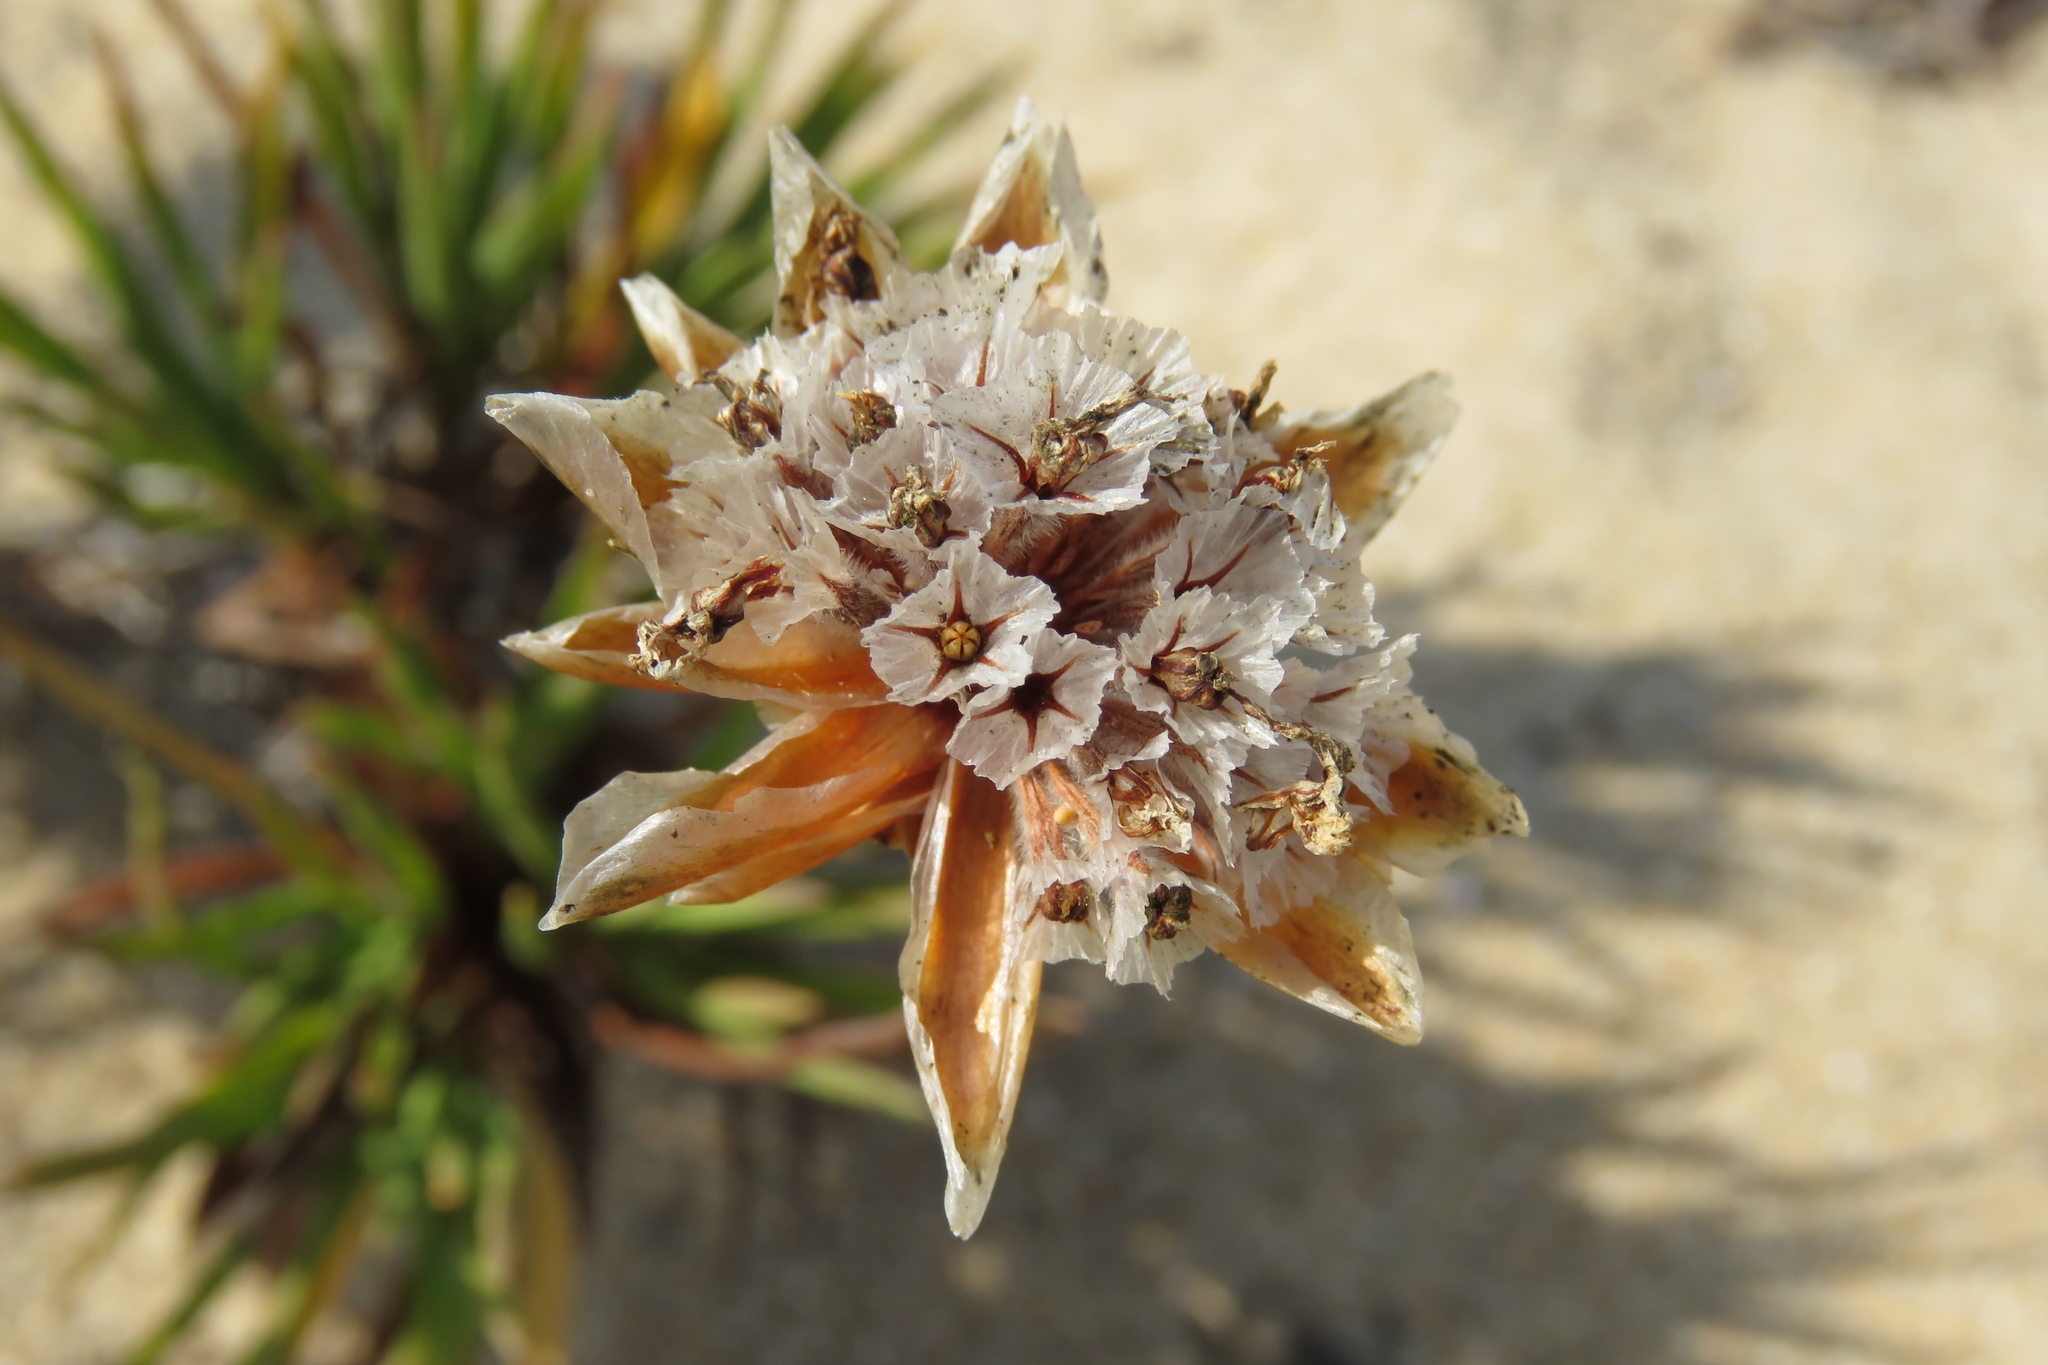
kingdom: Plantae
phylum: Tracheophyta
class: Magnoliopsida
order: Caryophyllales
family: Plumbaginaceae
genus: Armeria
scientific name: Armeria pungens
